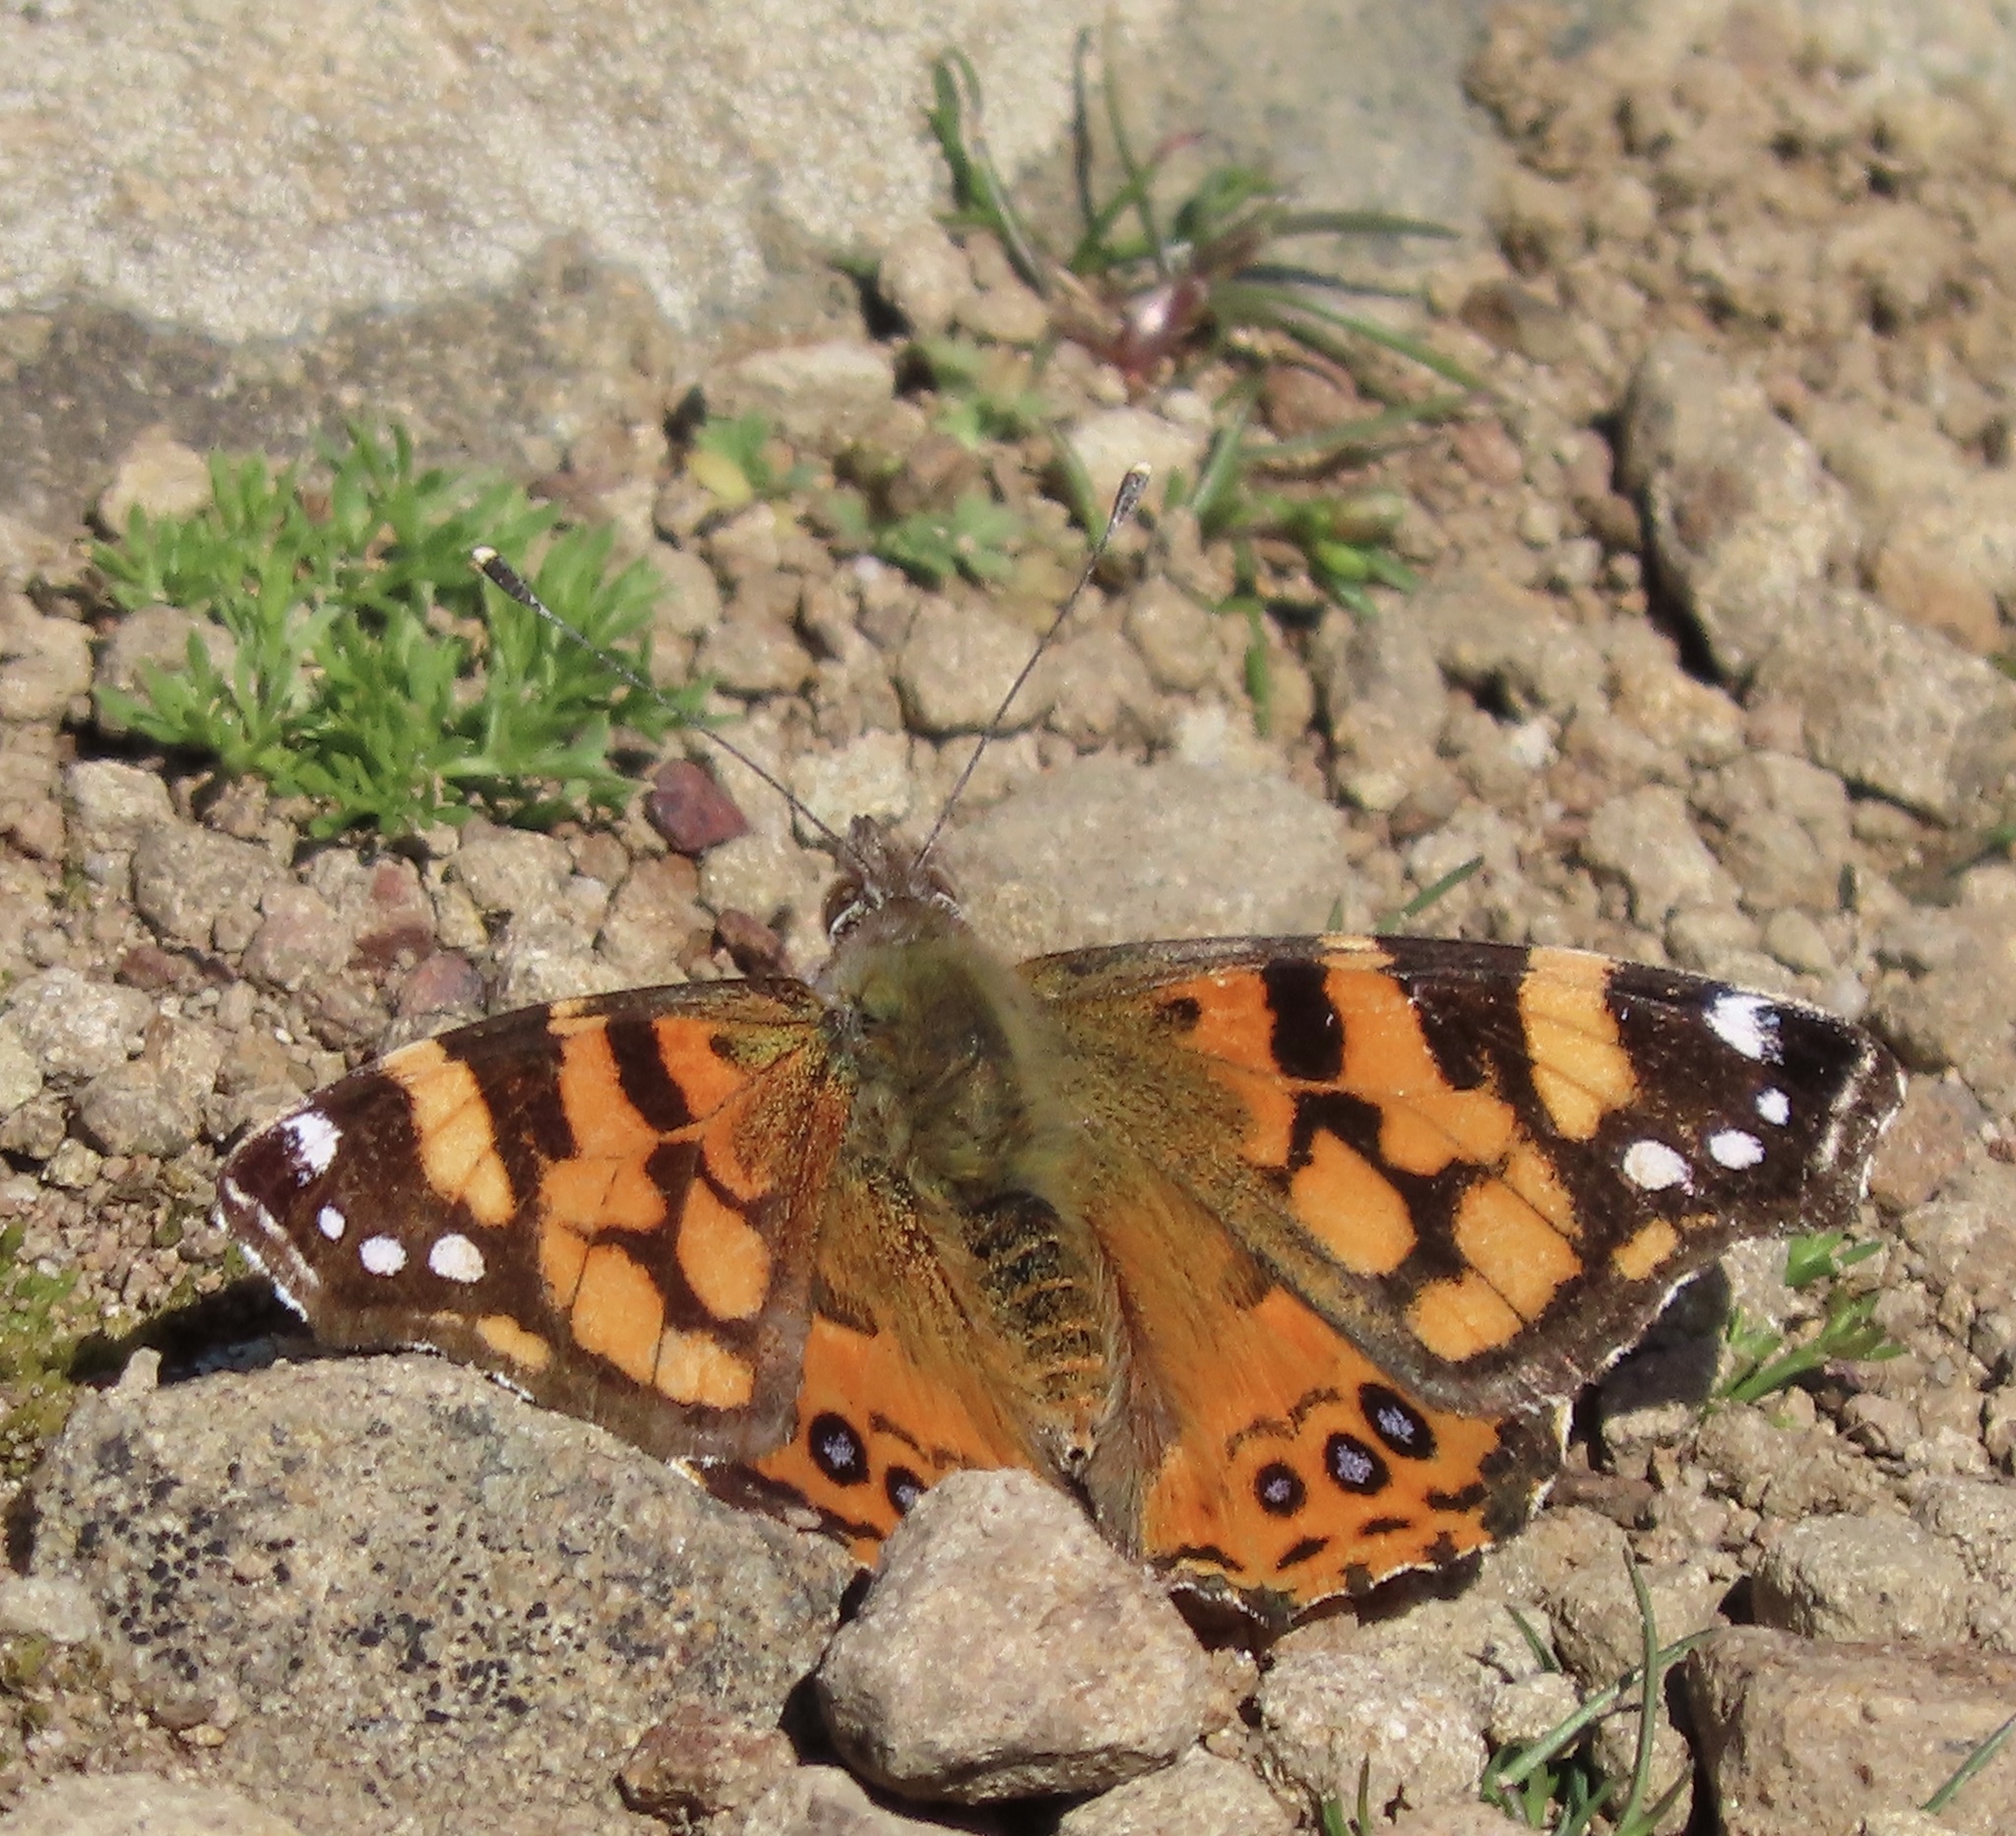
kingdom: Animalia
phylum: Arthropoda
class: Insecta
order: Lepidoptera
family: Nymphalidae
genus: Vanessa
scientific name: Vanessa annabella
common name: West coast lady
